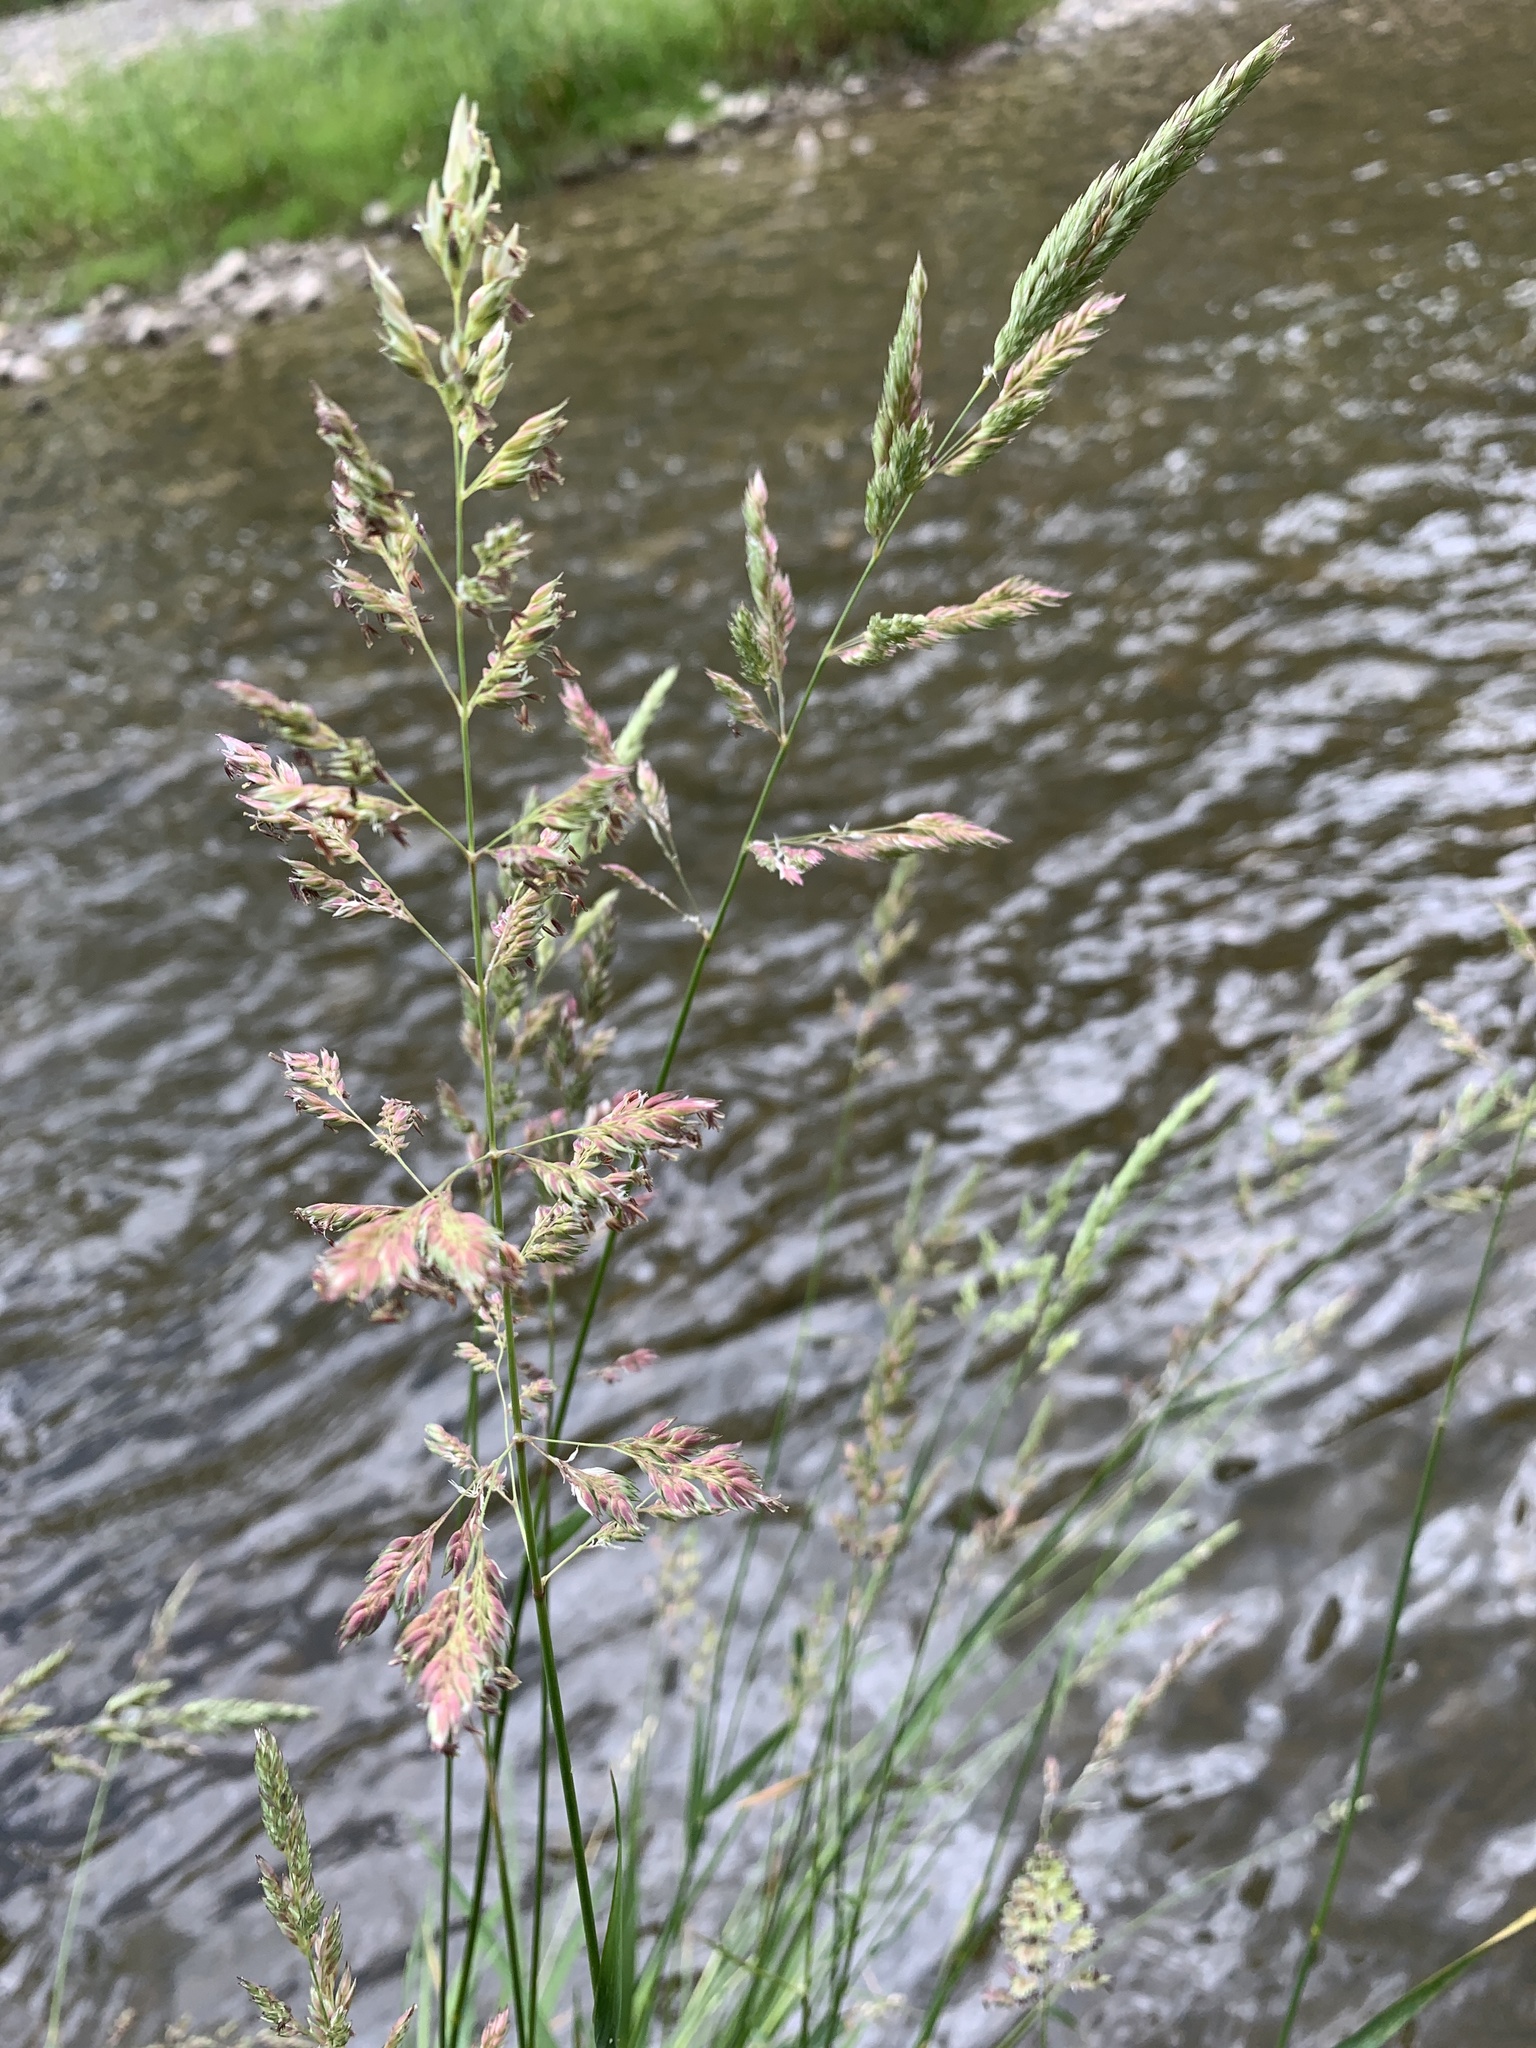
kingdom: Plantae
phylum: Tracheophyta
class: Liliopsida
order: Poales
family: Poaceae
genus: Phalaris
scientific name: Phalaris arundinacea
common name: Reed canary-grass
